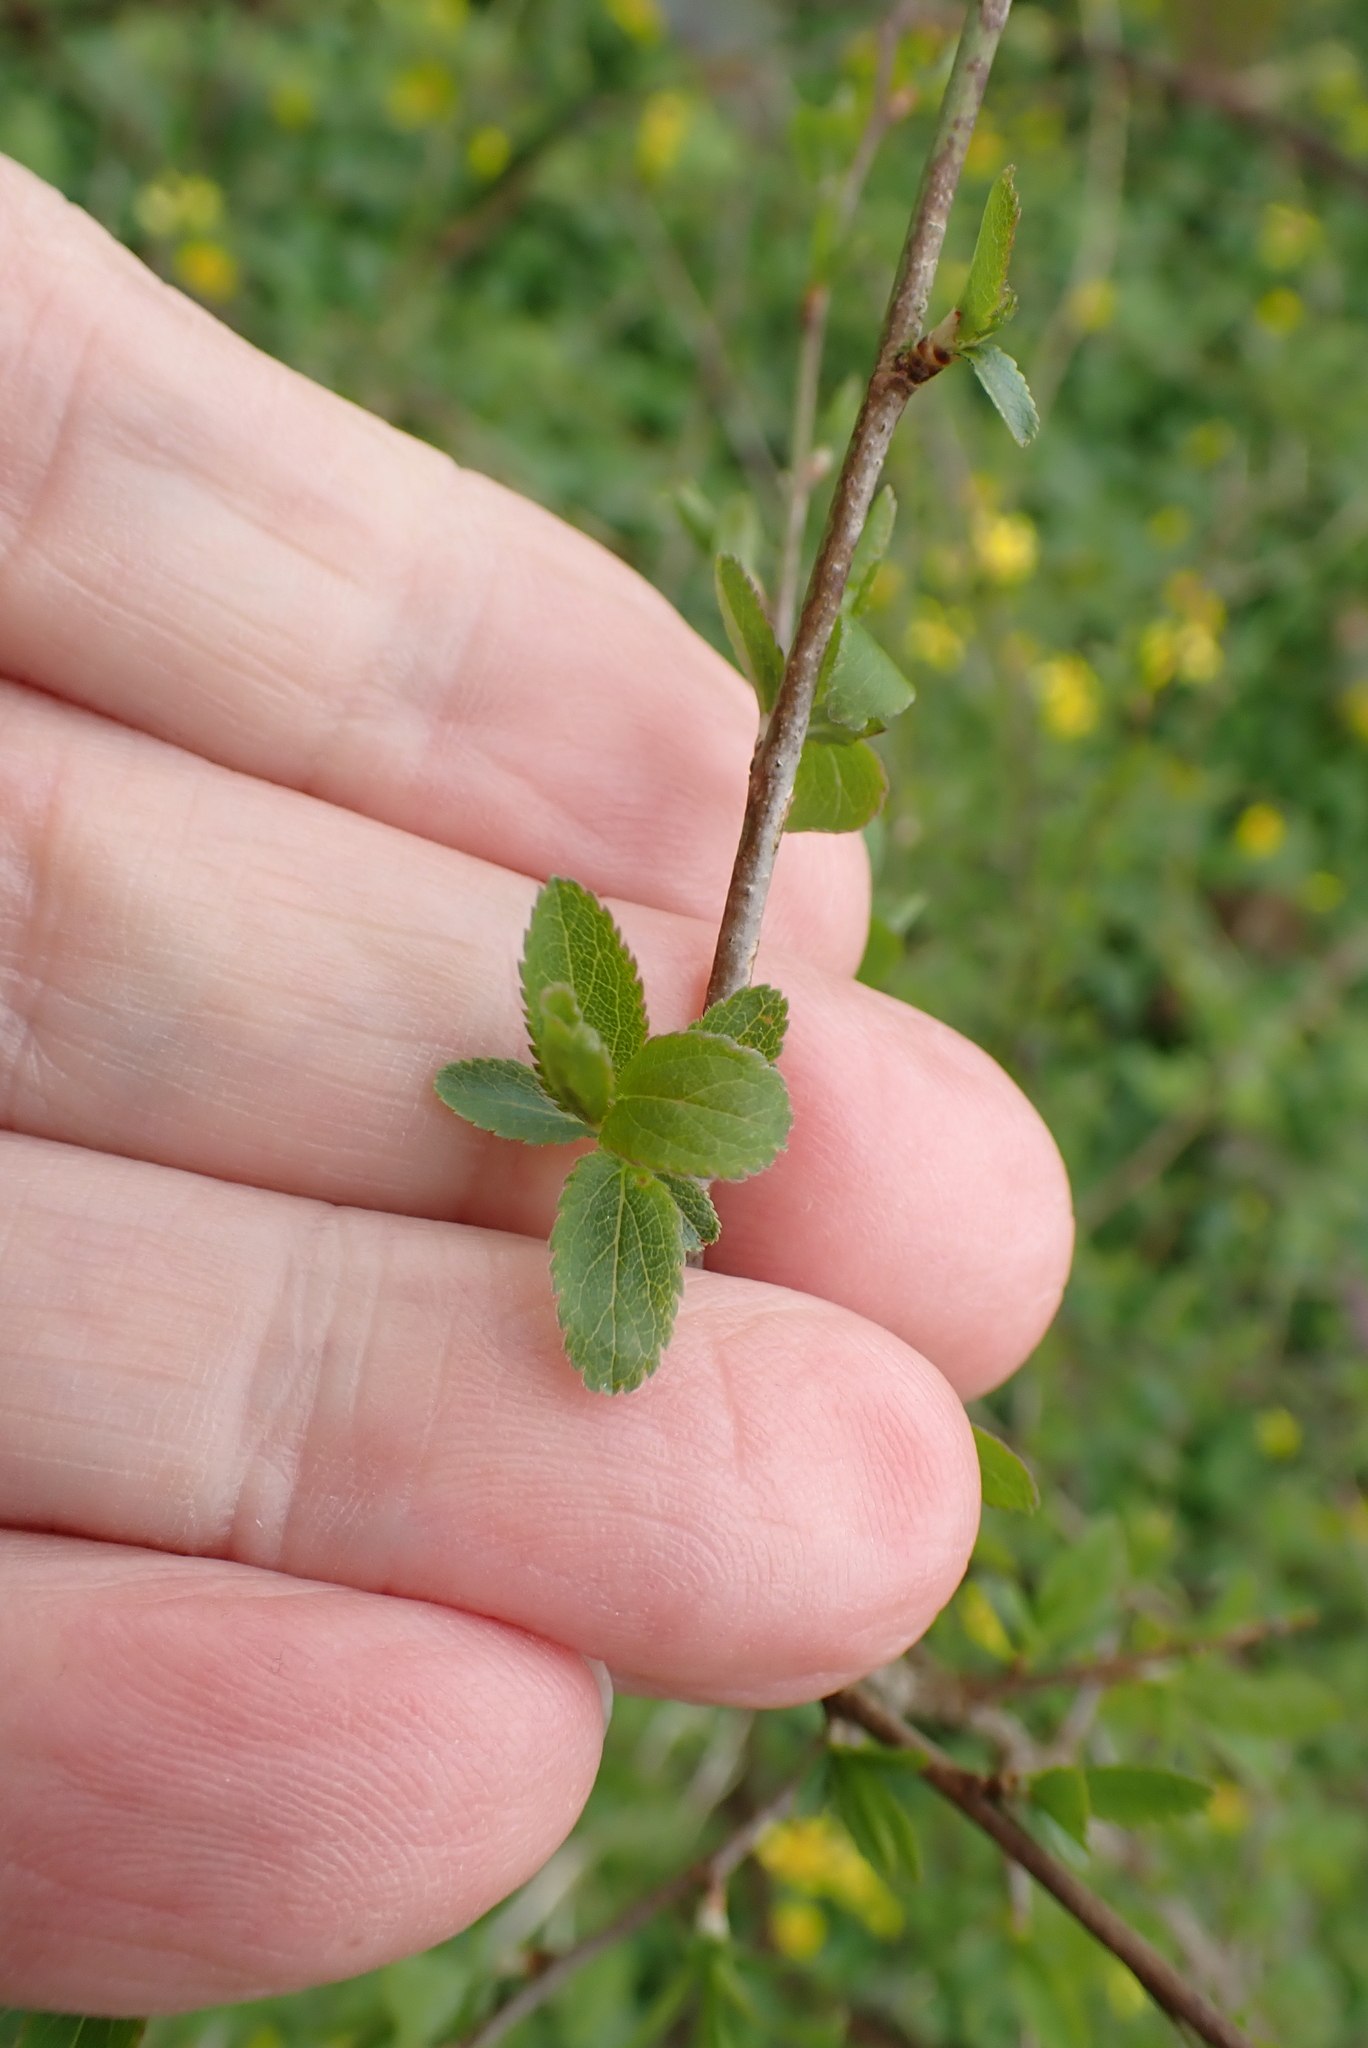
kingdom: Plantae
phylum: Tracheophyta
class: Magnoliopsida
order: Rosales
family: Rosaceae
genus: Prunus
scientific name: Prunus spinosa
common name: Blackthorn
